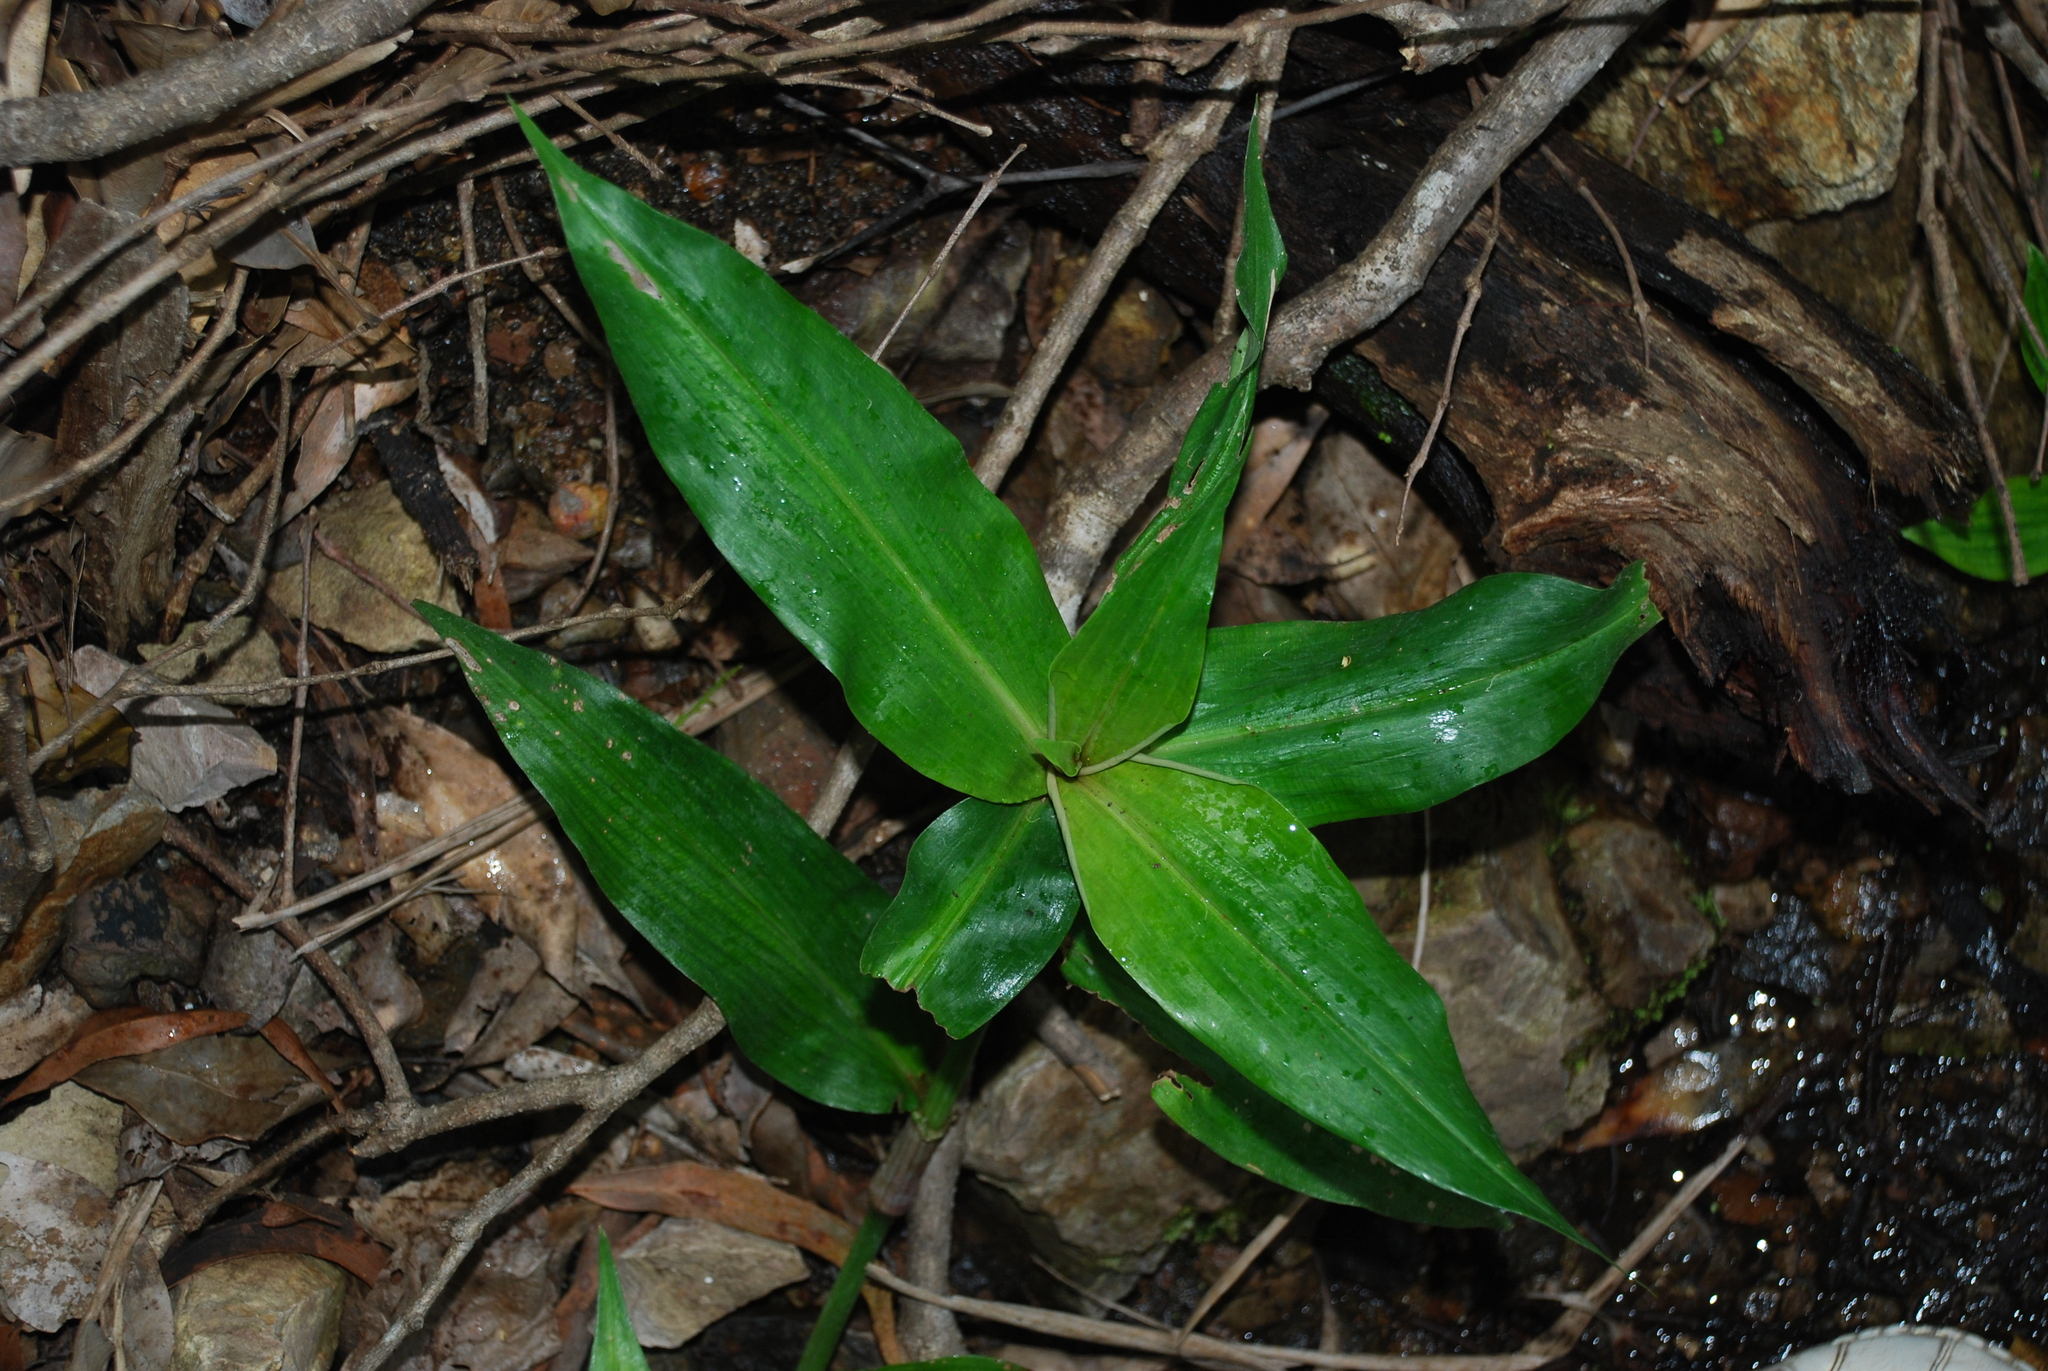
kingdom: Plantae
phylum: Tracheophyta
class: Liliopsida
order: Commelinales
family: Commelinaceae
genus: Pollia
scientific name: Pollia crispata
